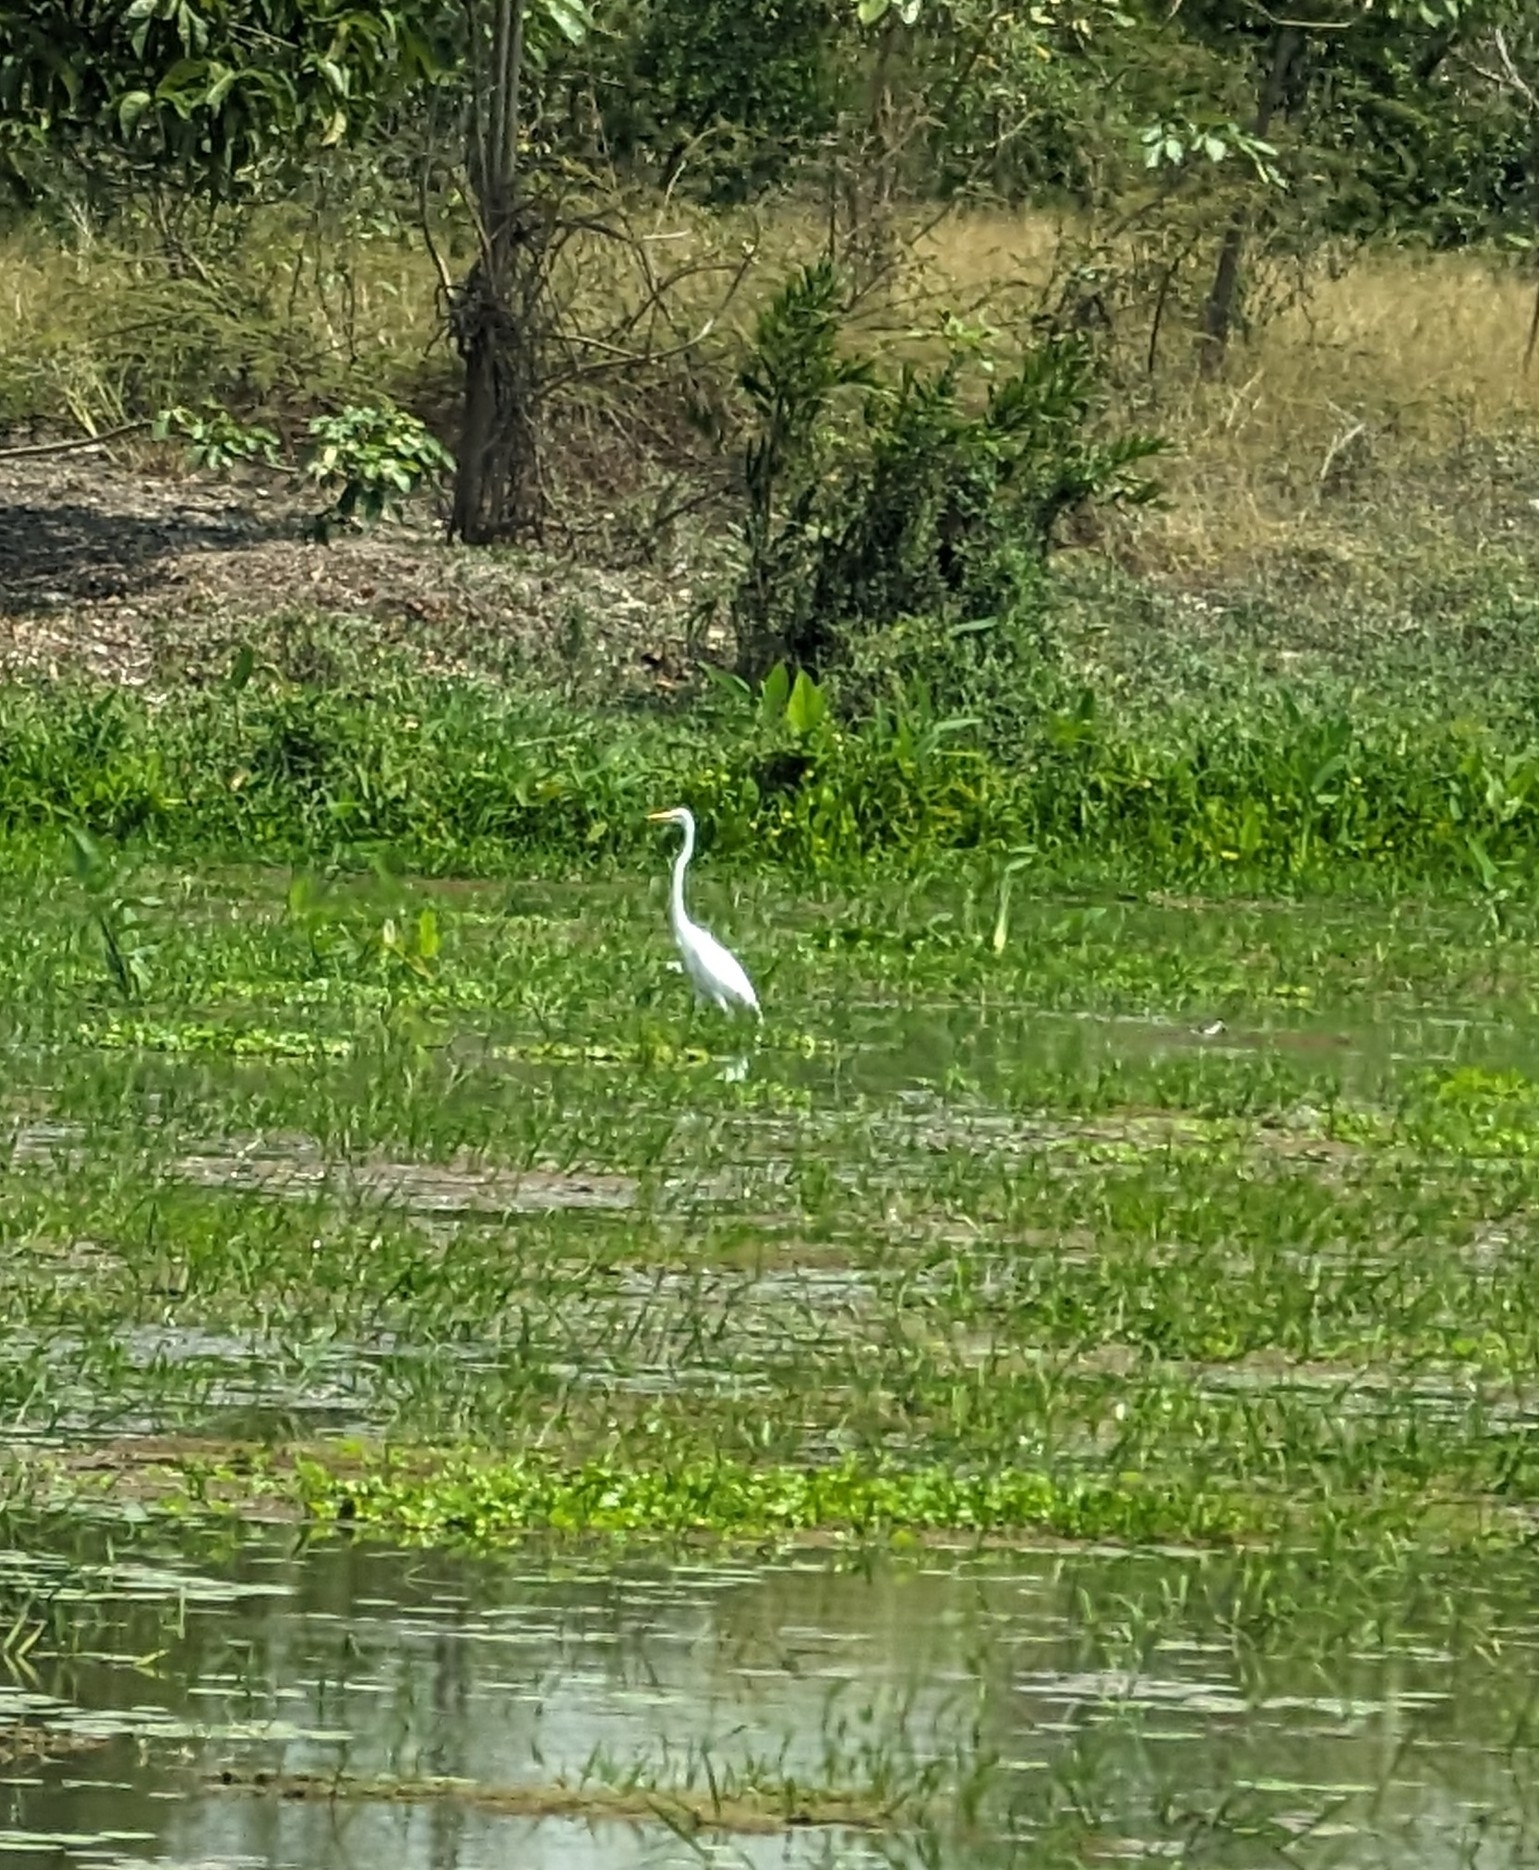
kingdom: Animalia
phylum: Chordata
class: Aves
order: Pelecaniformes
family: Ardeidae
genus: Ardea
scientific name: Ardea alba
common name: Great egret
